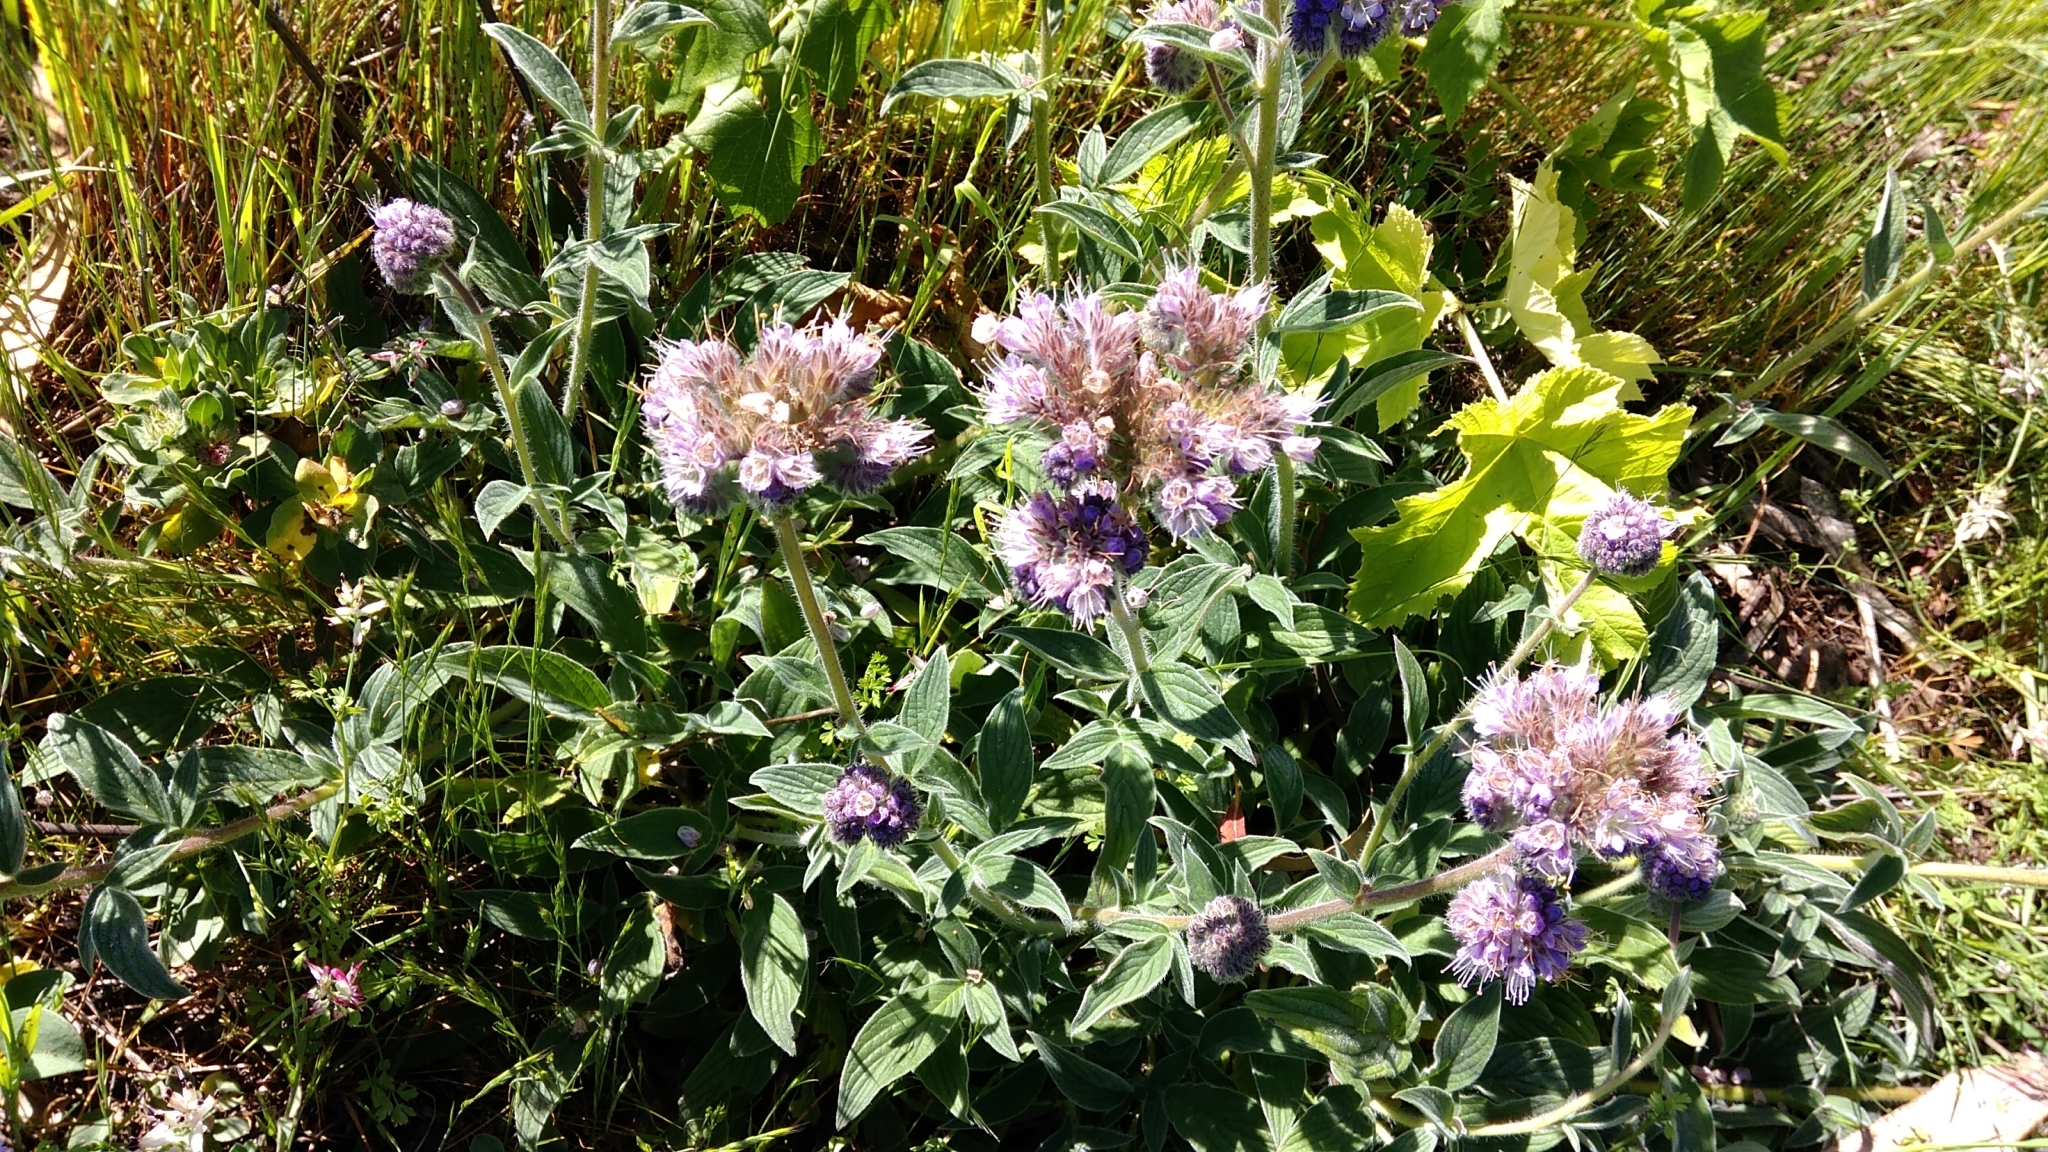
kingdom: Plantae
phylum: Tracheophyta
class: Magnoliopsida
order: Boraginales
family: Hydrophyllaceae
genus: Phacelia
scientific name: Phacelia californica
